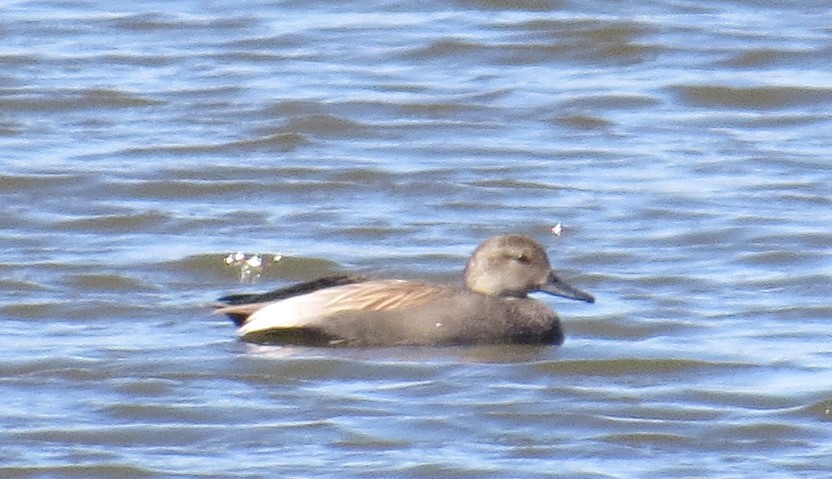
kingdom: Animalia
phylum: Chordata
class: Aves
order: Anseriformes
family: Anatidae
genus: Mareca
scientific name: Mareca strepera
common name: Gadwall
